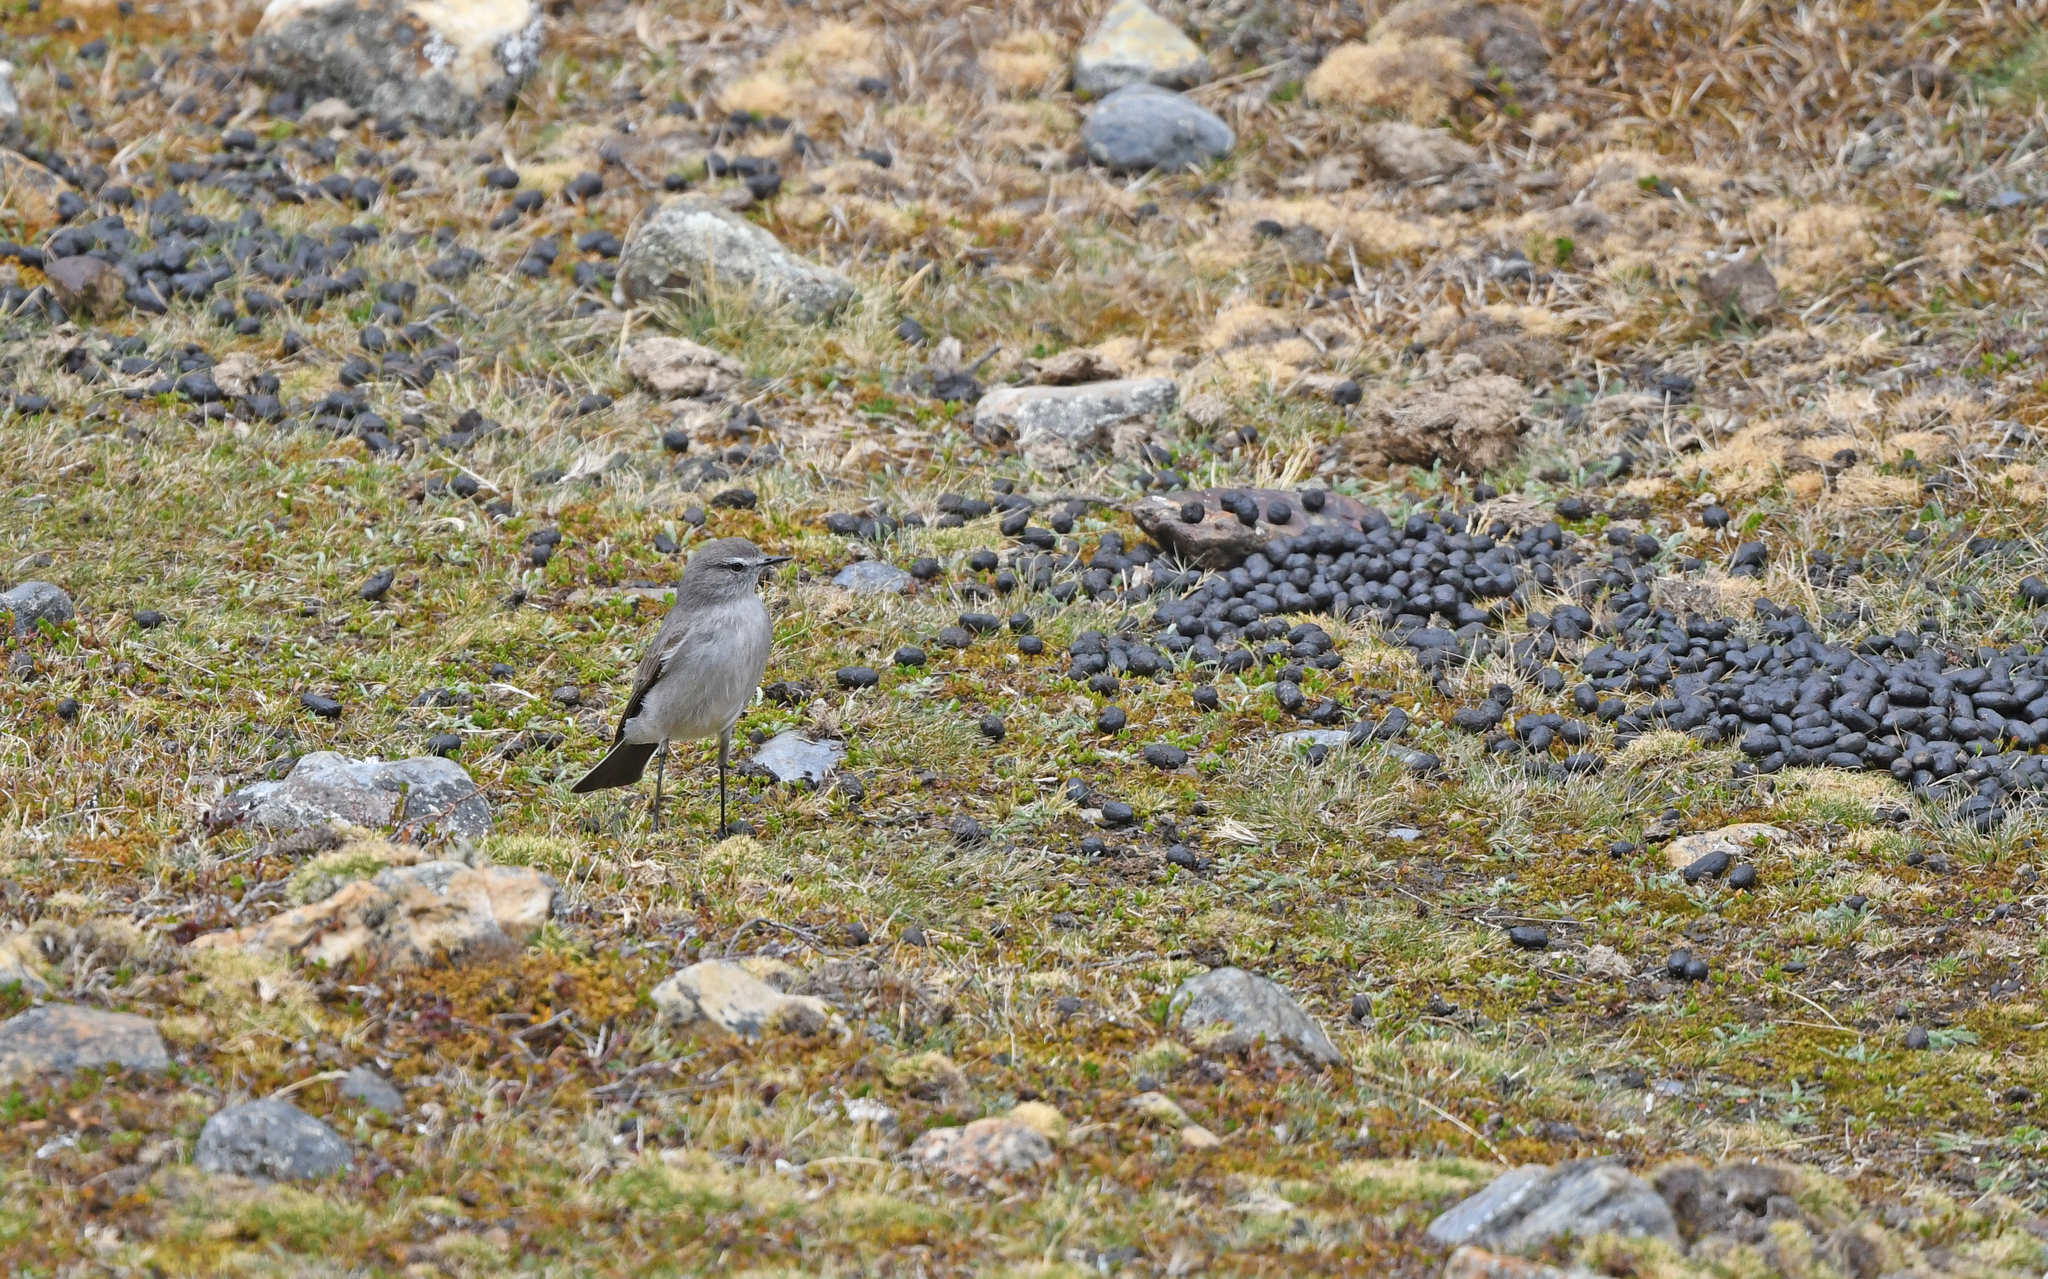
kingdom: Animalia
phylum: Chordata
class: Aves
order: Passeriformes
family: Tyrannidae
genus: Muscisaxicola
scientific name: Muscisaxicola cinereus
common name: Cinereous ground tyrant
